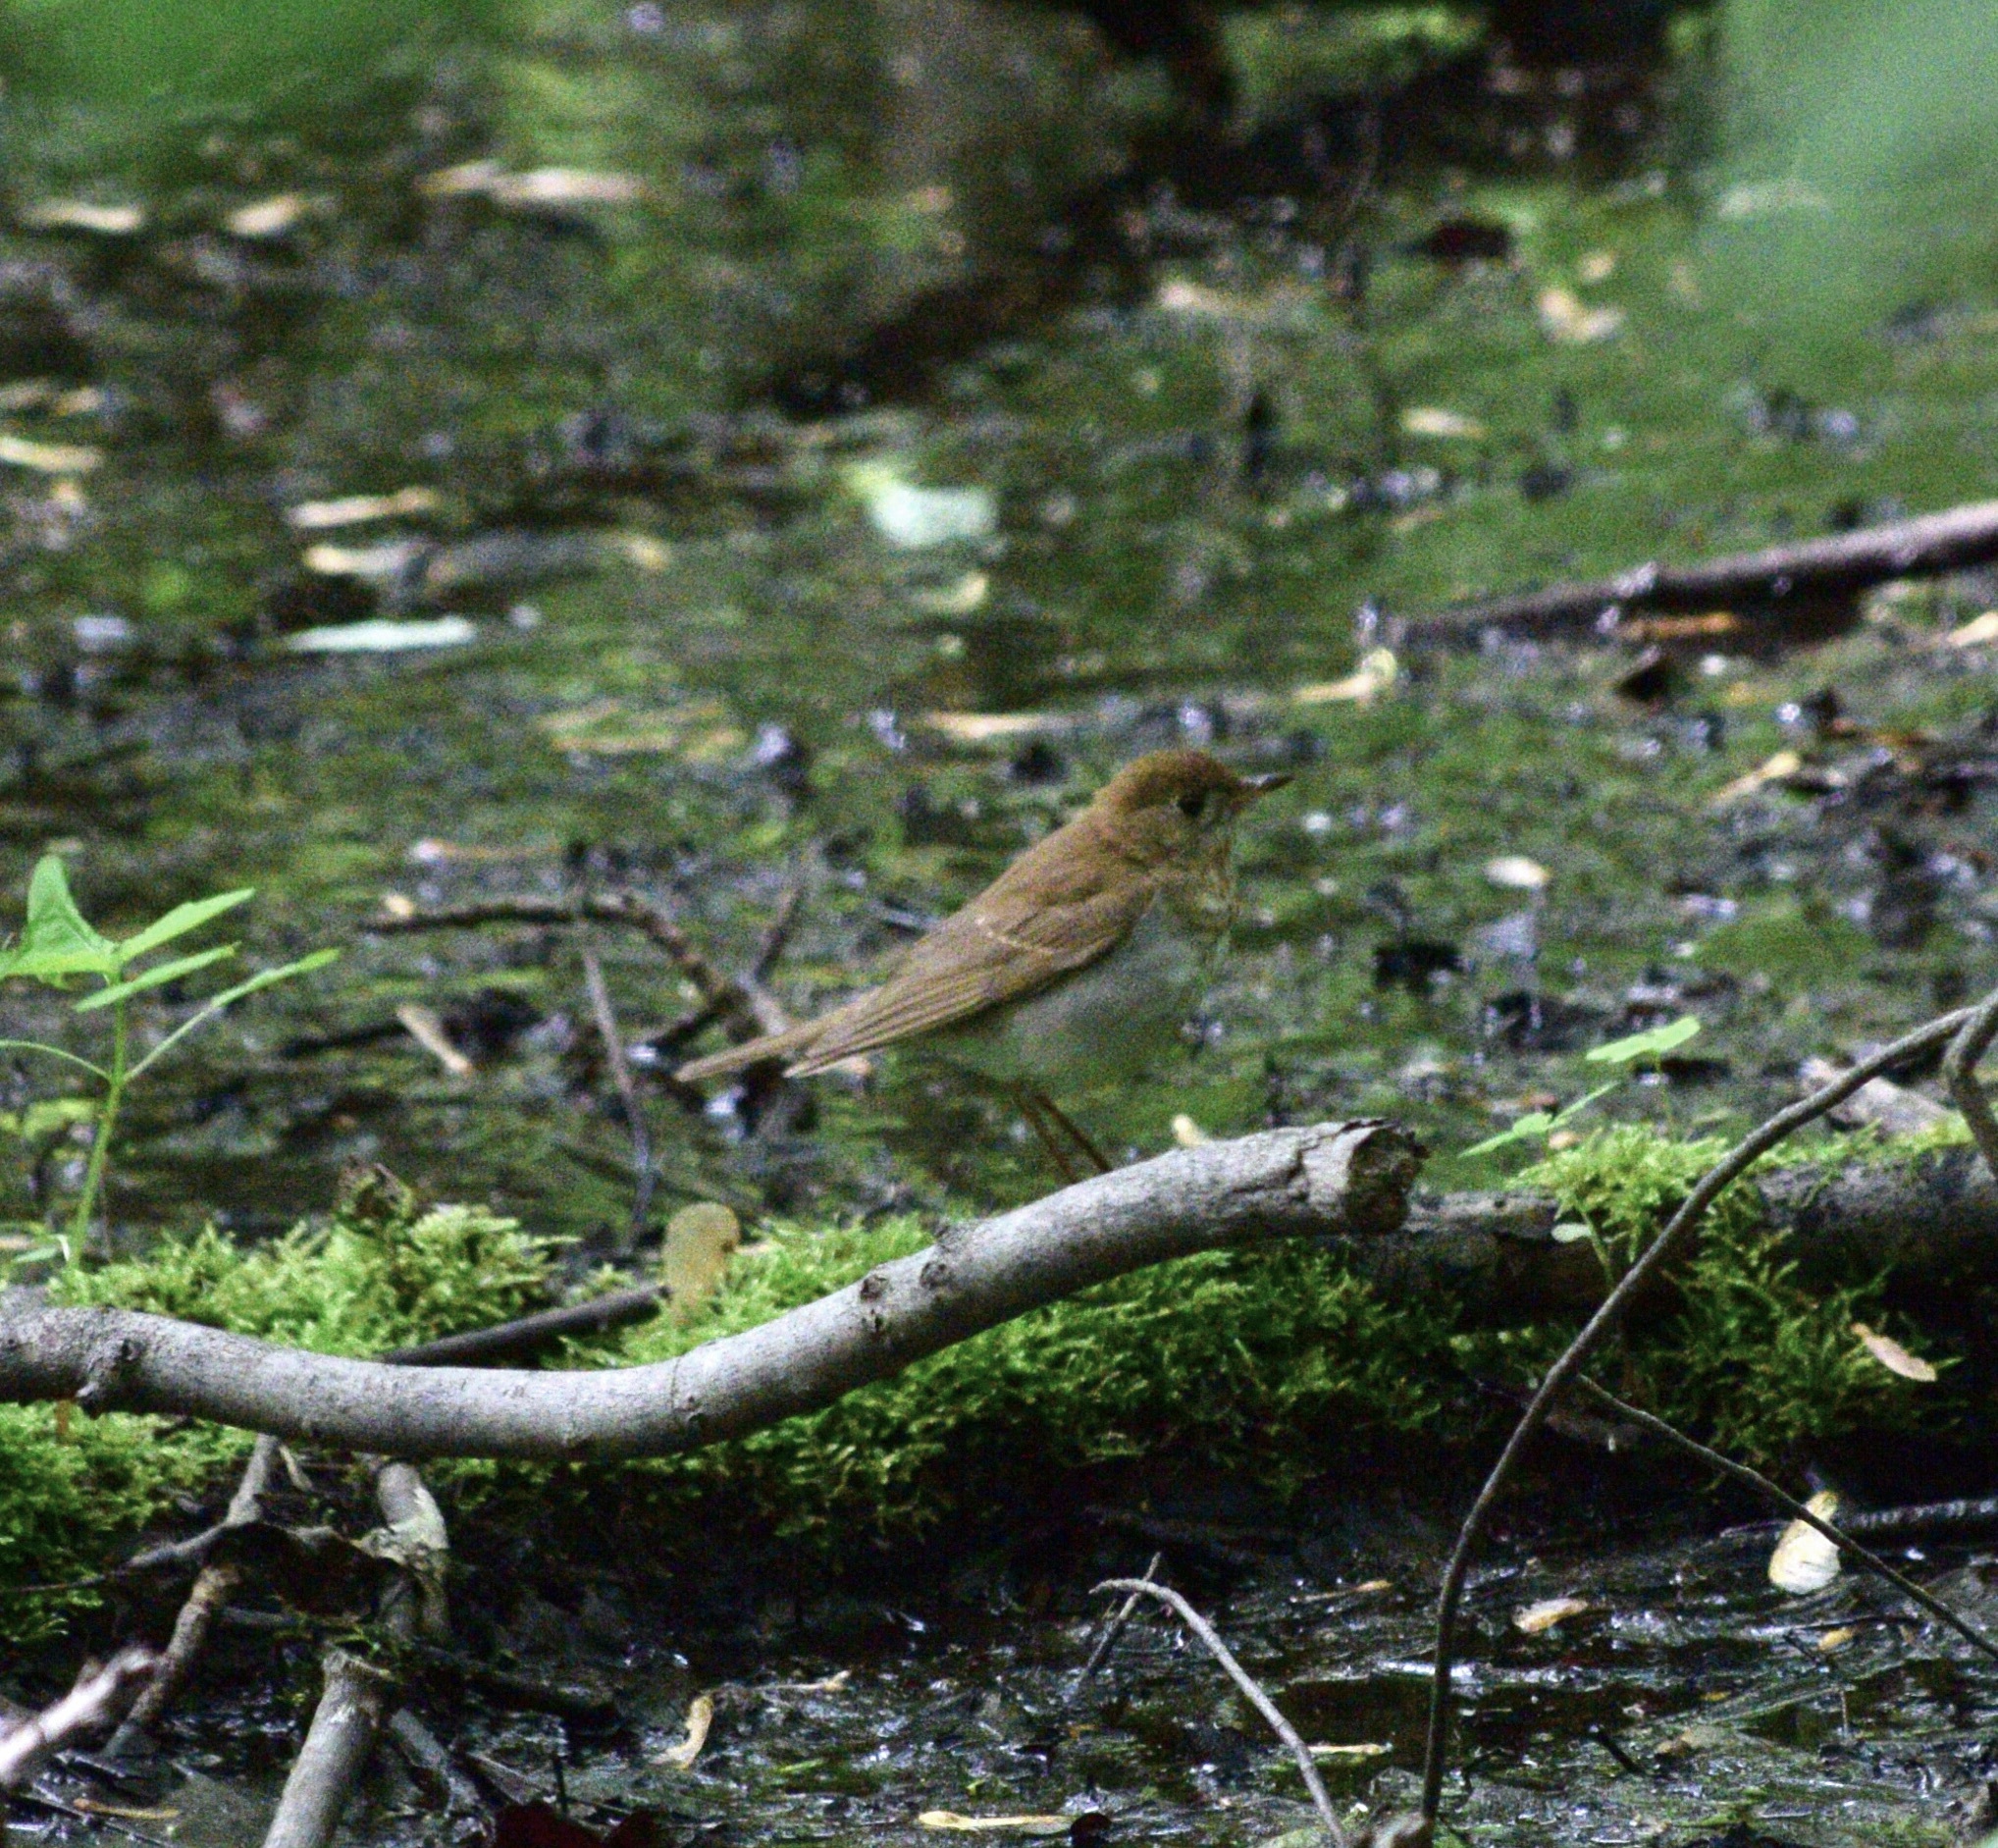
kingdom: Animalia
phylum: Chordata
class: Aves
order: Passeriformes
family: Turdidae
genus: Catharus
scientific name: Catharus fuscescens
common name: Veery
